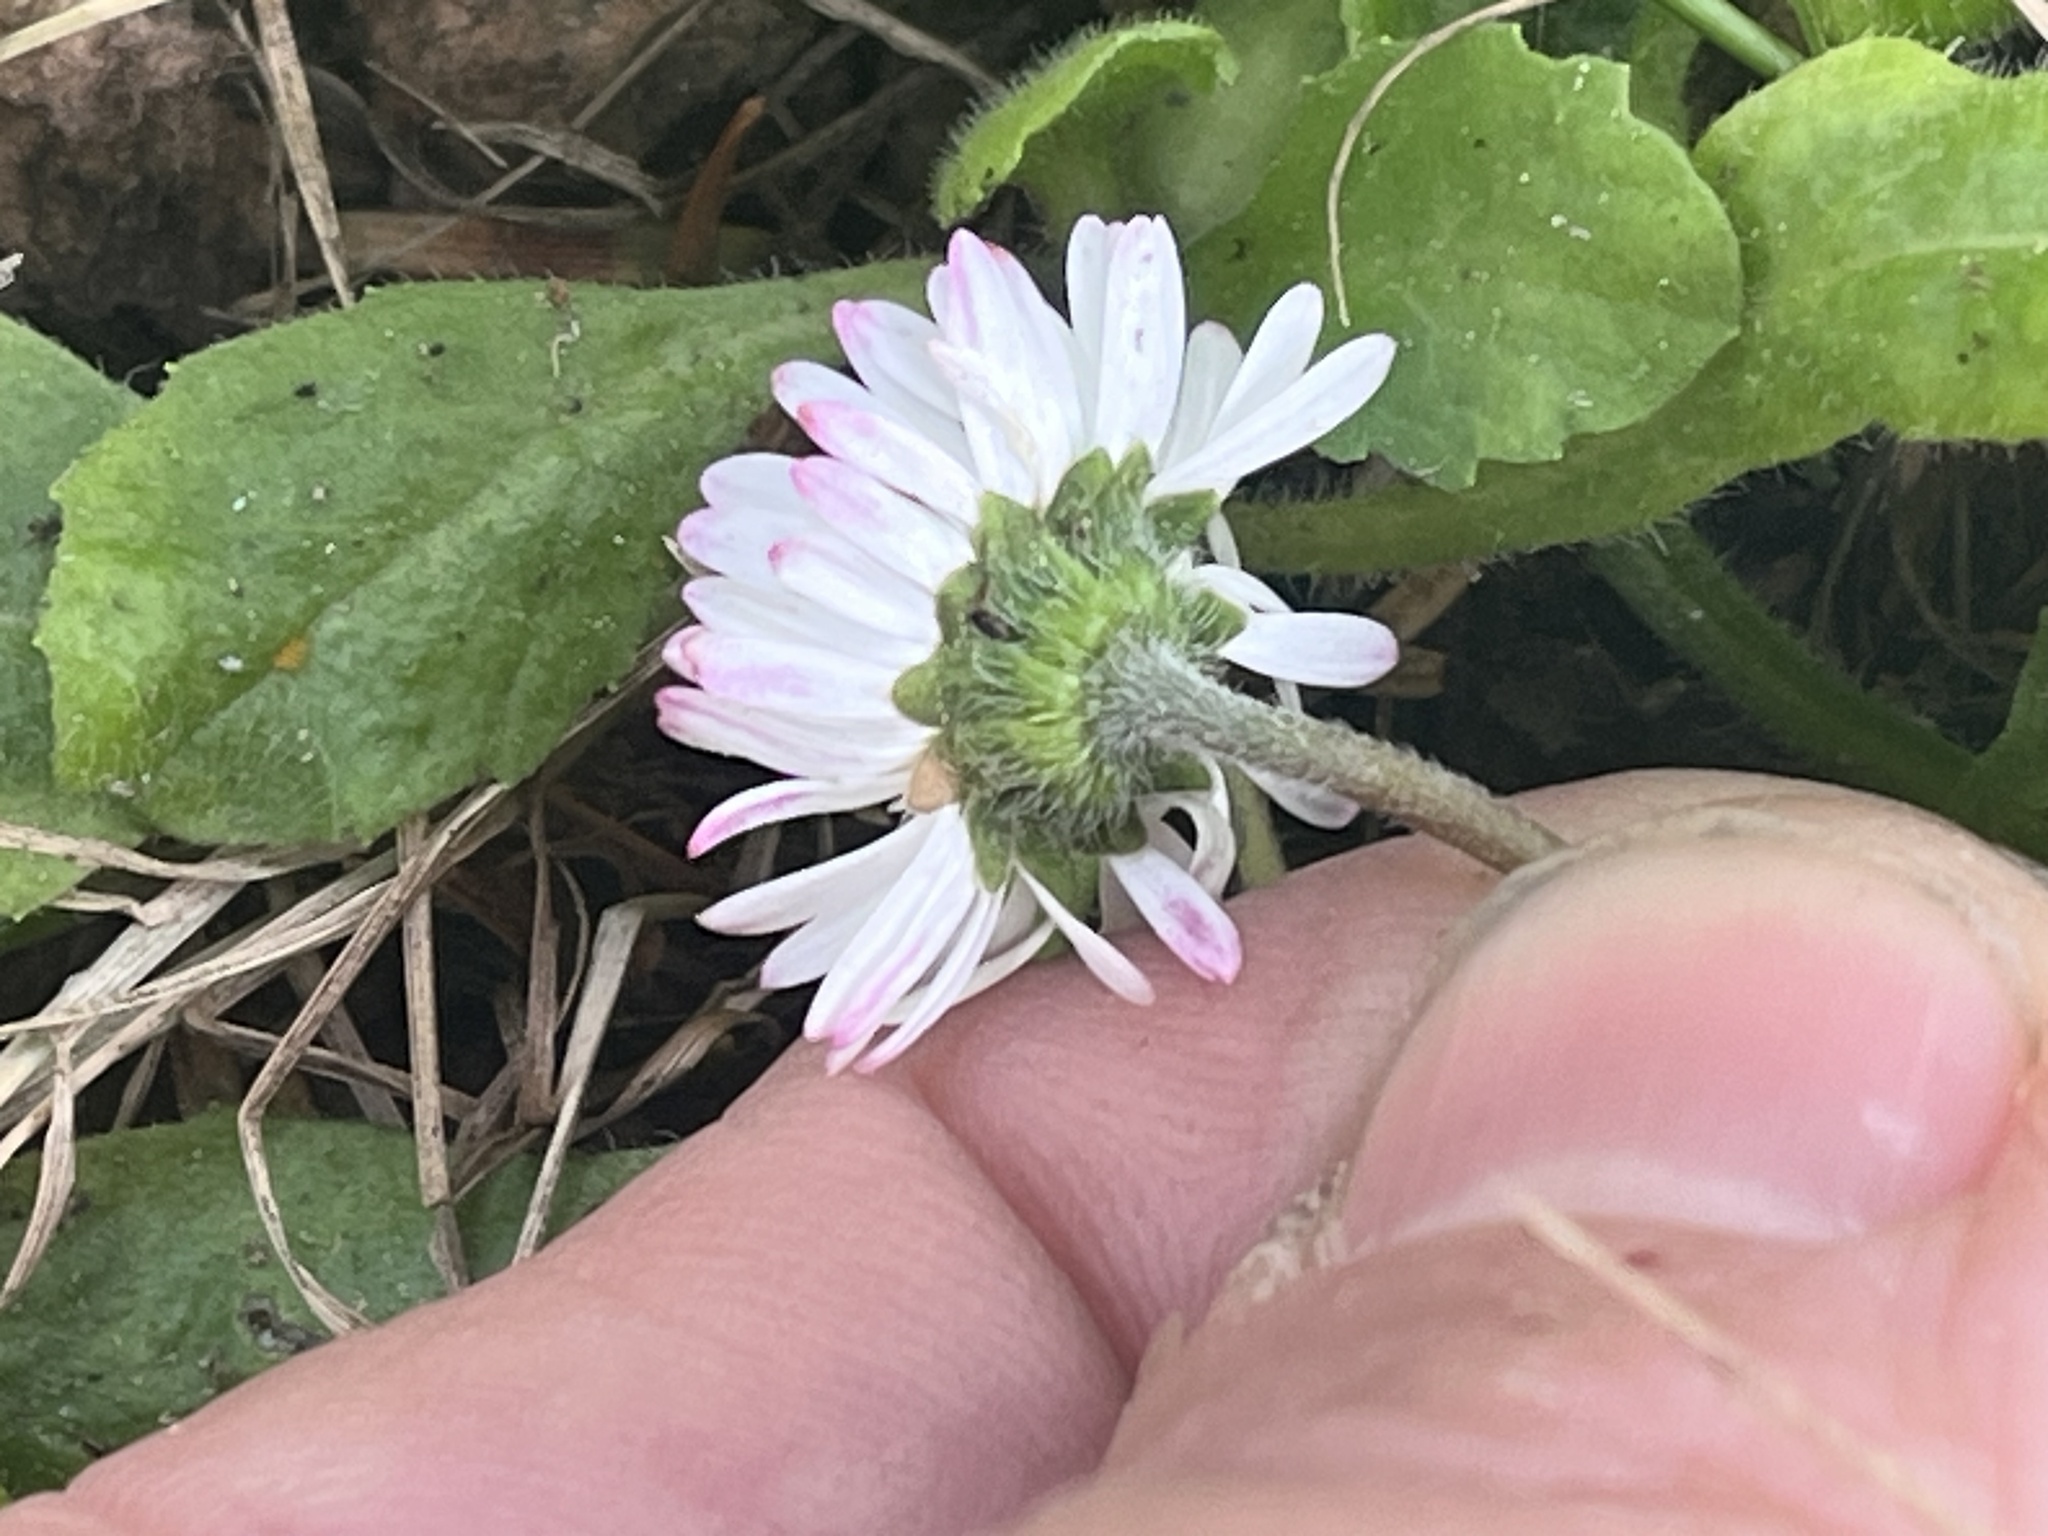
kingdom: Plantae
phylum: Tracheophyta
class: Magnoliopsida
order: Asterales
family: Asteraceae
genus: Bellis
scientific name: Bellis perennis
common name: Lawndaisy
